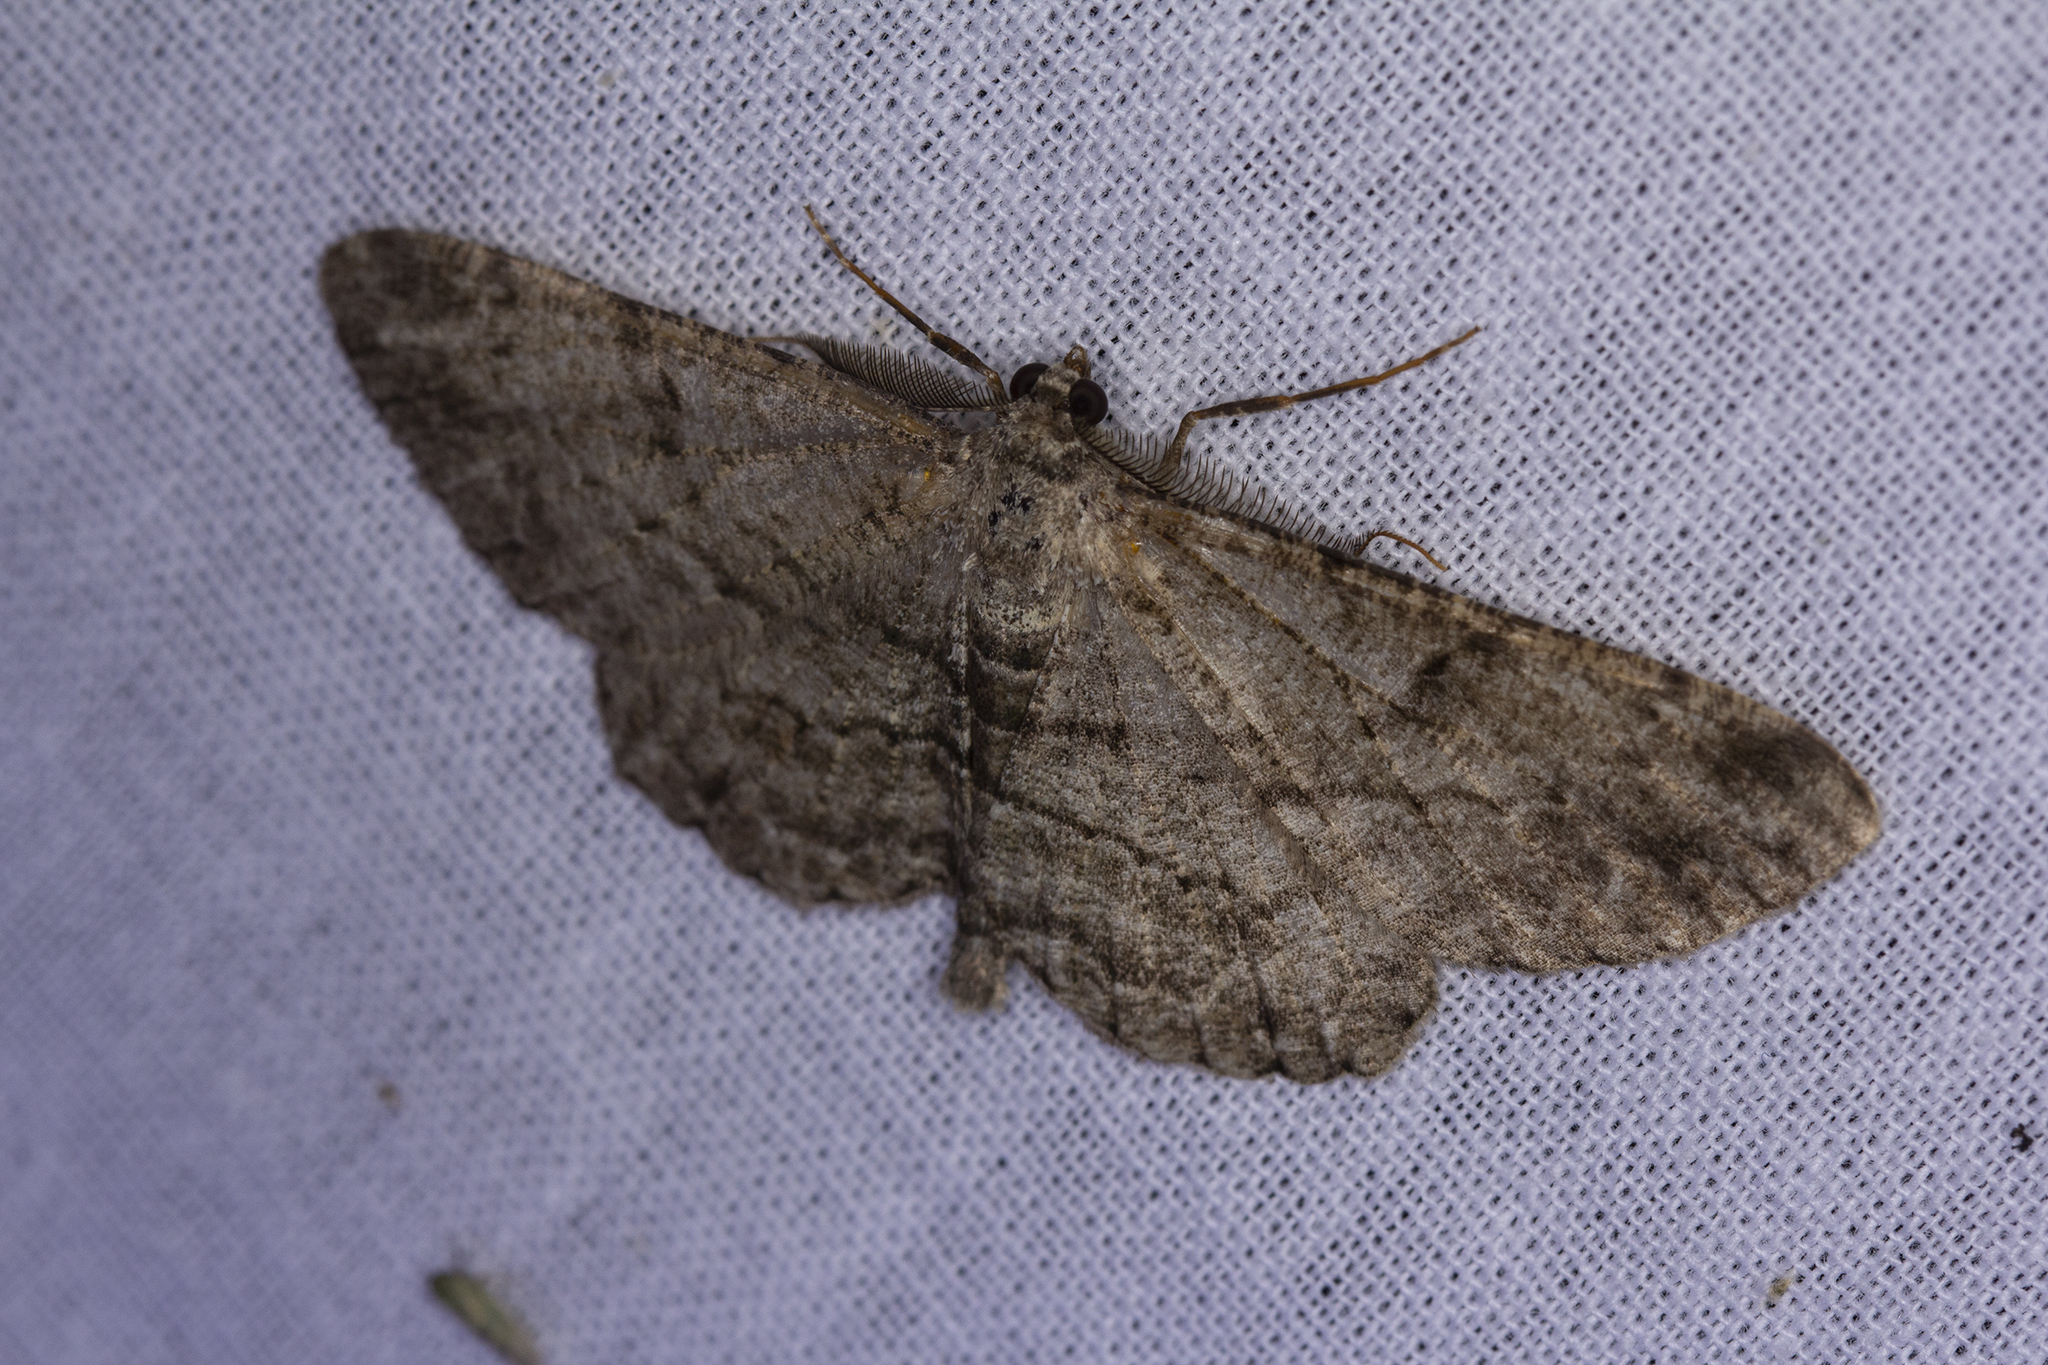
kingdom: Animalia
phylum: Arthropoda
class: Insecta
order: Lepidoptera
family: Geometridae
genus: Peribatodes
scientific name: Peribatodes rhomboidaria
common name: Willow beauty
